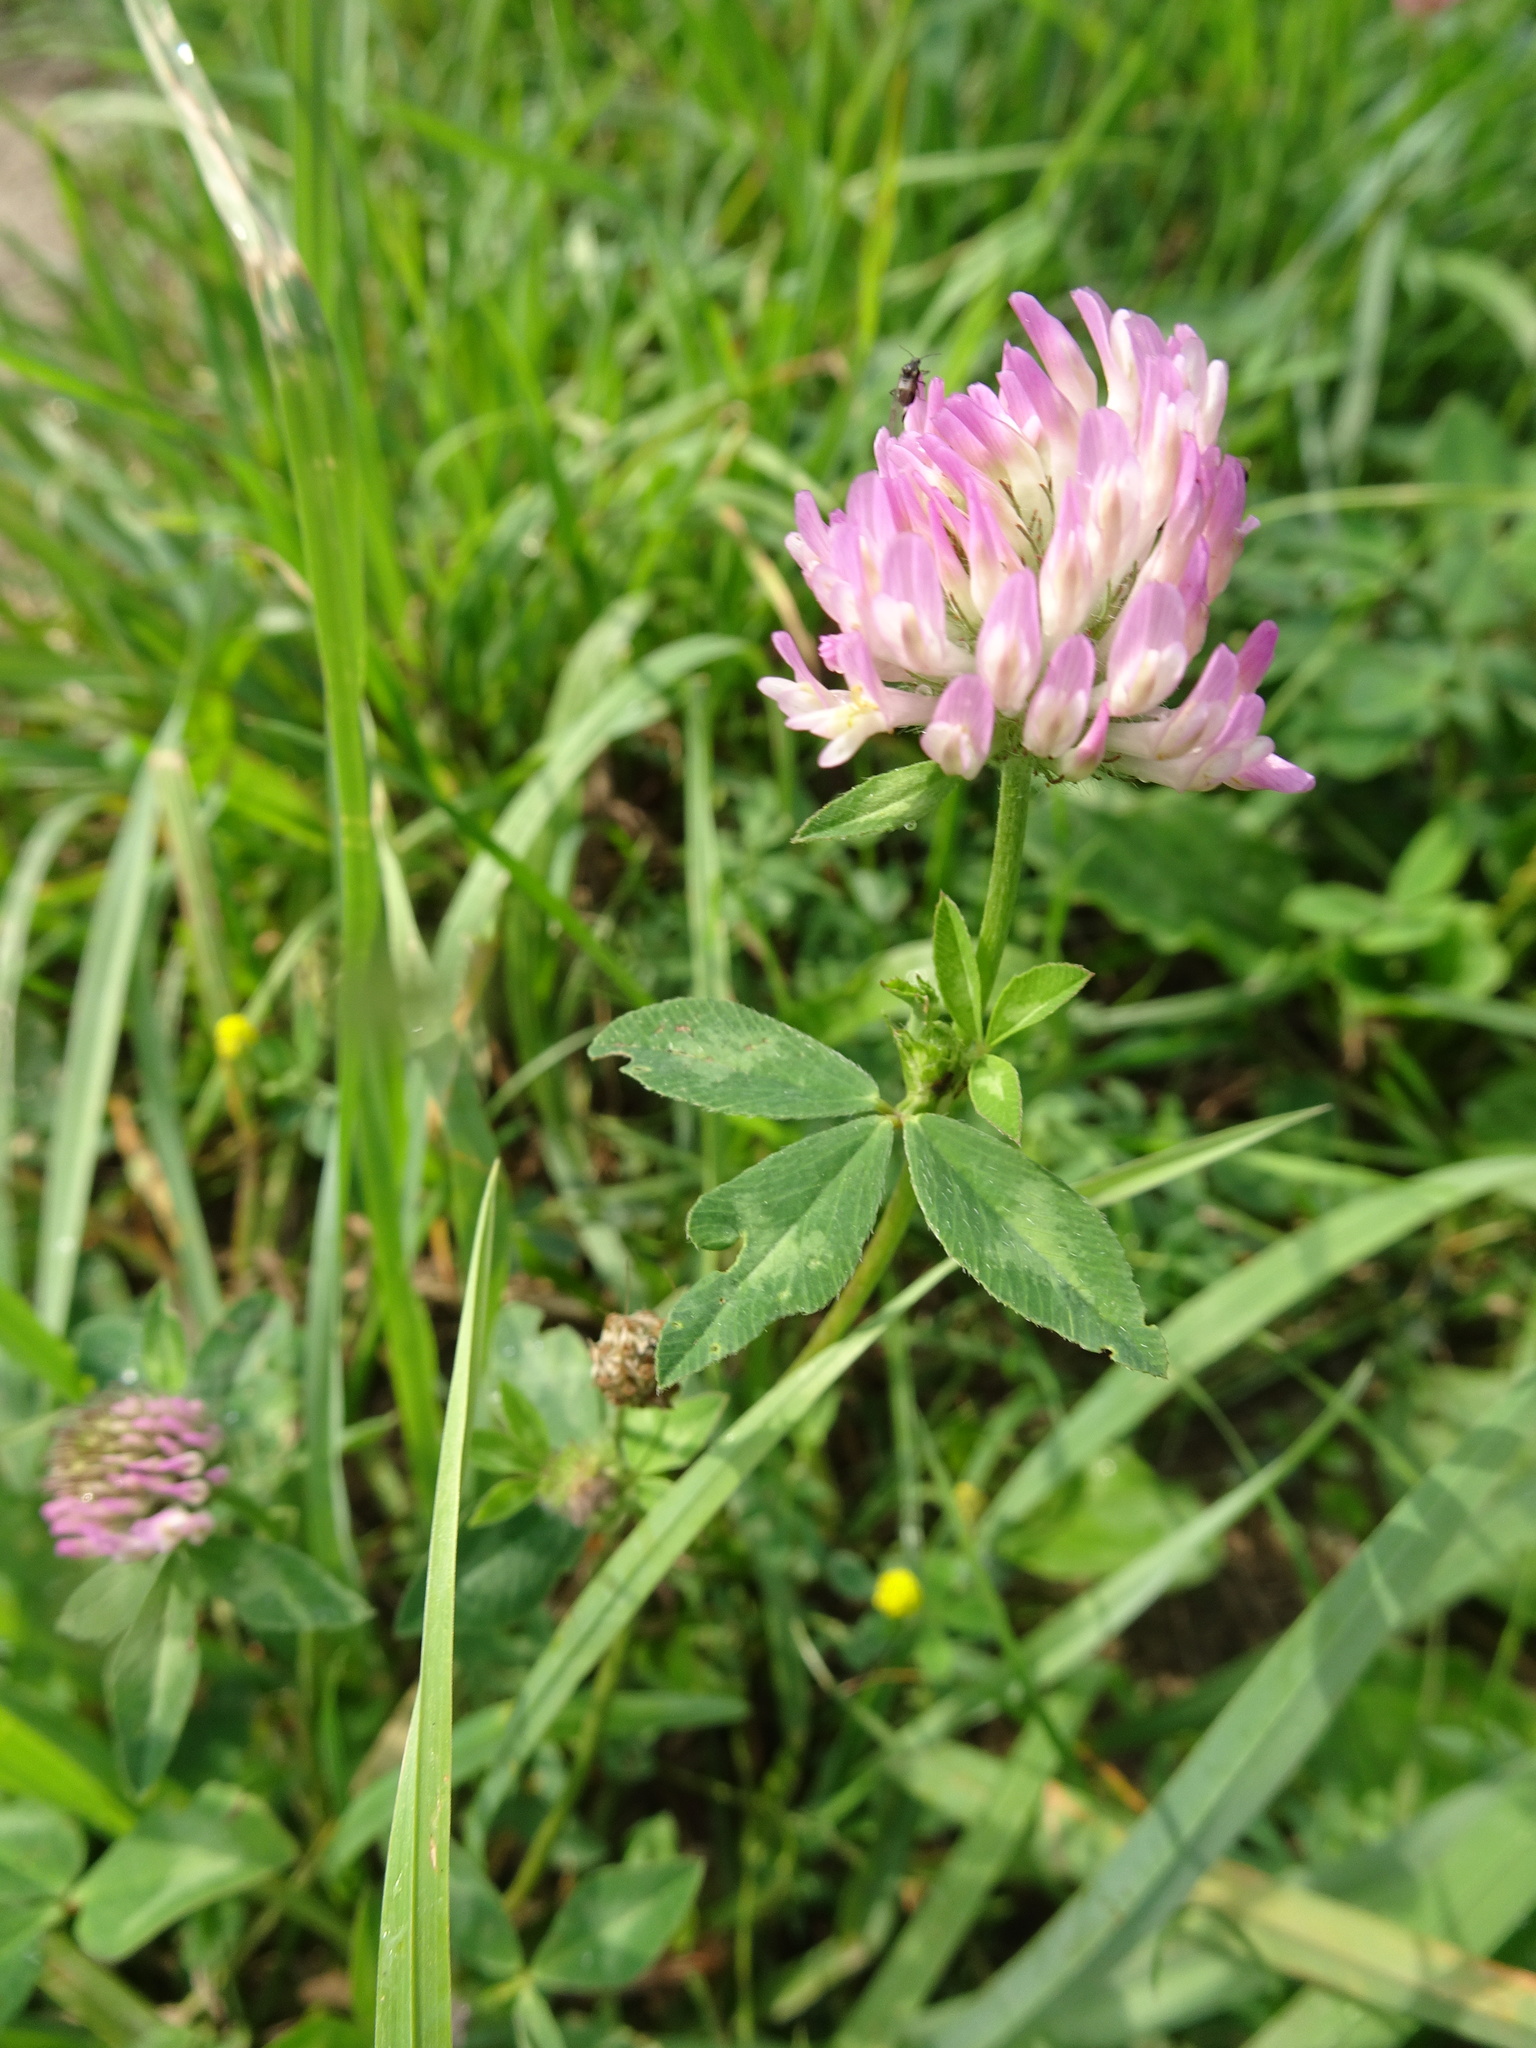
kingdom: Plantae
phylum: Tracheophyta
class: Magnoliopsida
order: Fabales
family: Fabaceae
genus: Trifolium
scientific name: Trifolium pratense
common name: Red clover
